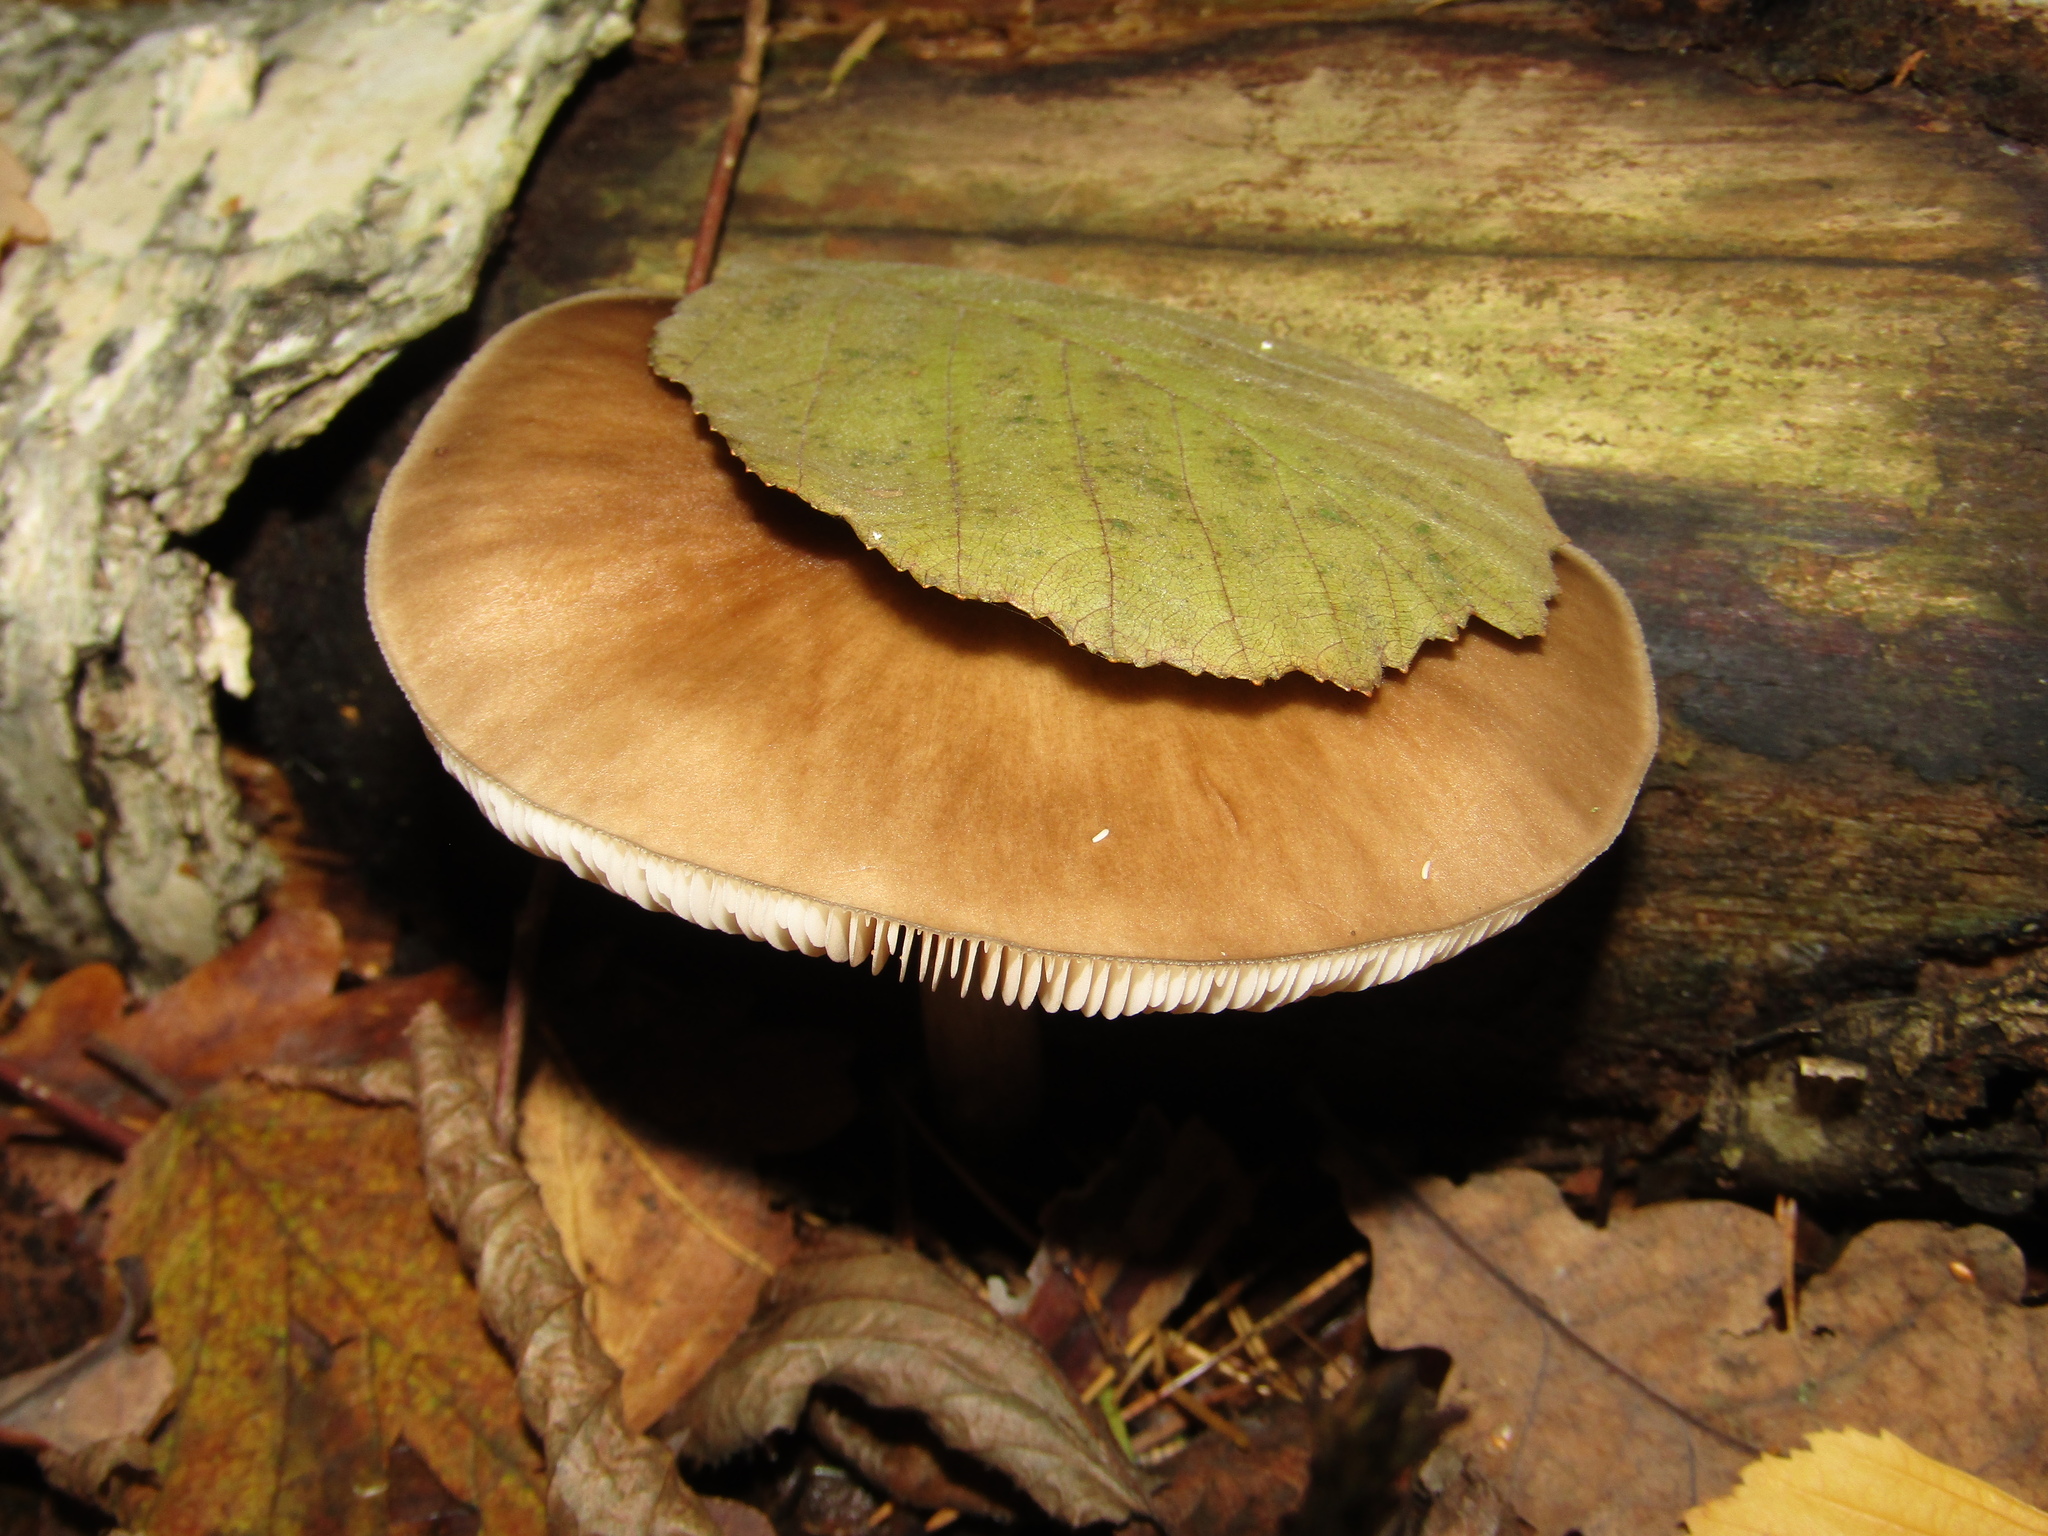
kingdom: Fungi
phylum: Basidiomycota
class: Agaricomycetes
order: Agaricales
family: Pluteaceae
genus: Pluteus
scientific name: Pluteus cervinus
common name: Deer shield
